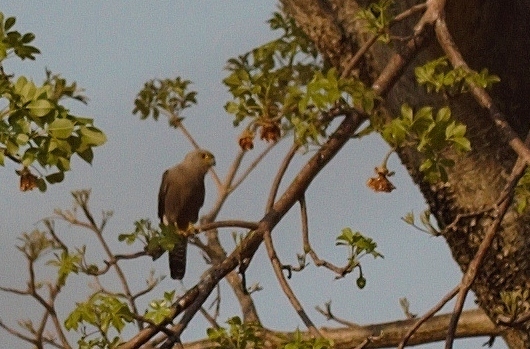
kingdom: Animalia
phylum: Chordata
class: Aves
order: Falconiformes
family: Falconidae
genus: Falco
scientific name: Falco dickinsoni
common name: Dickinson's kestrel
